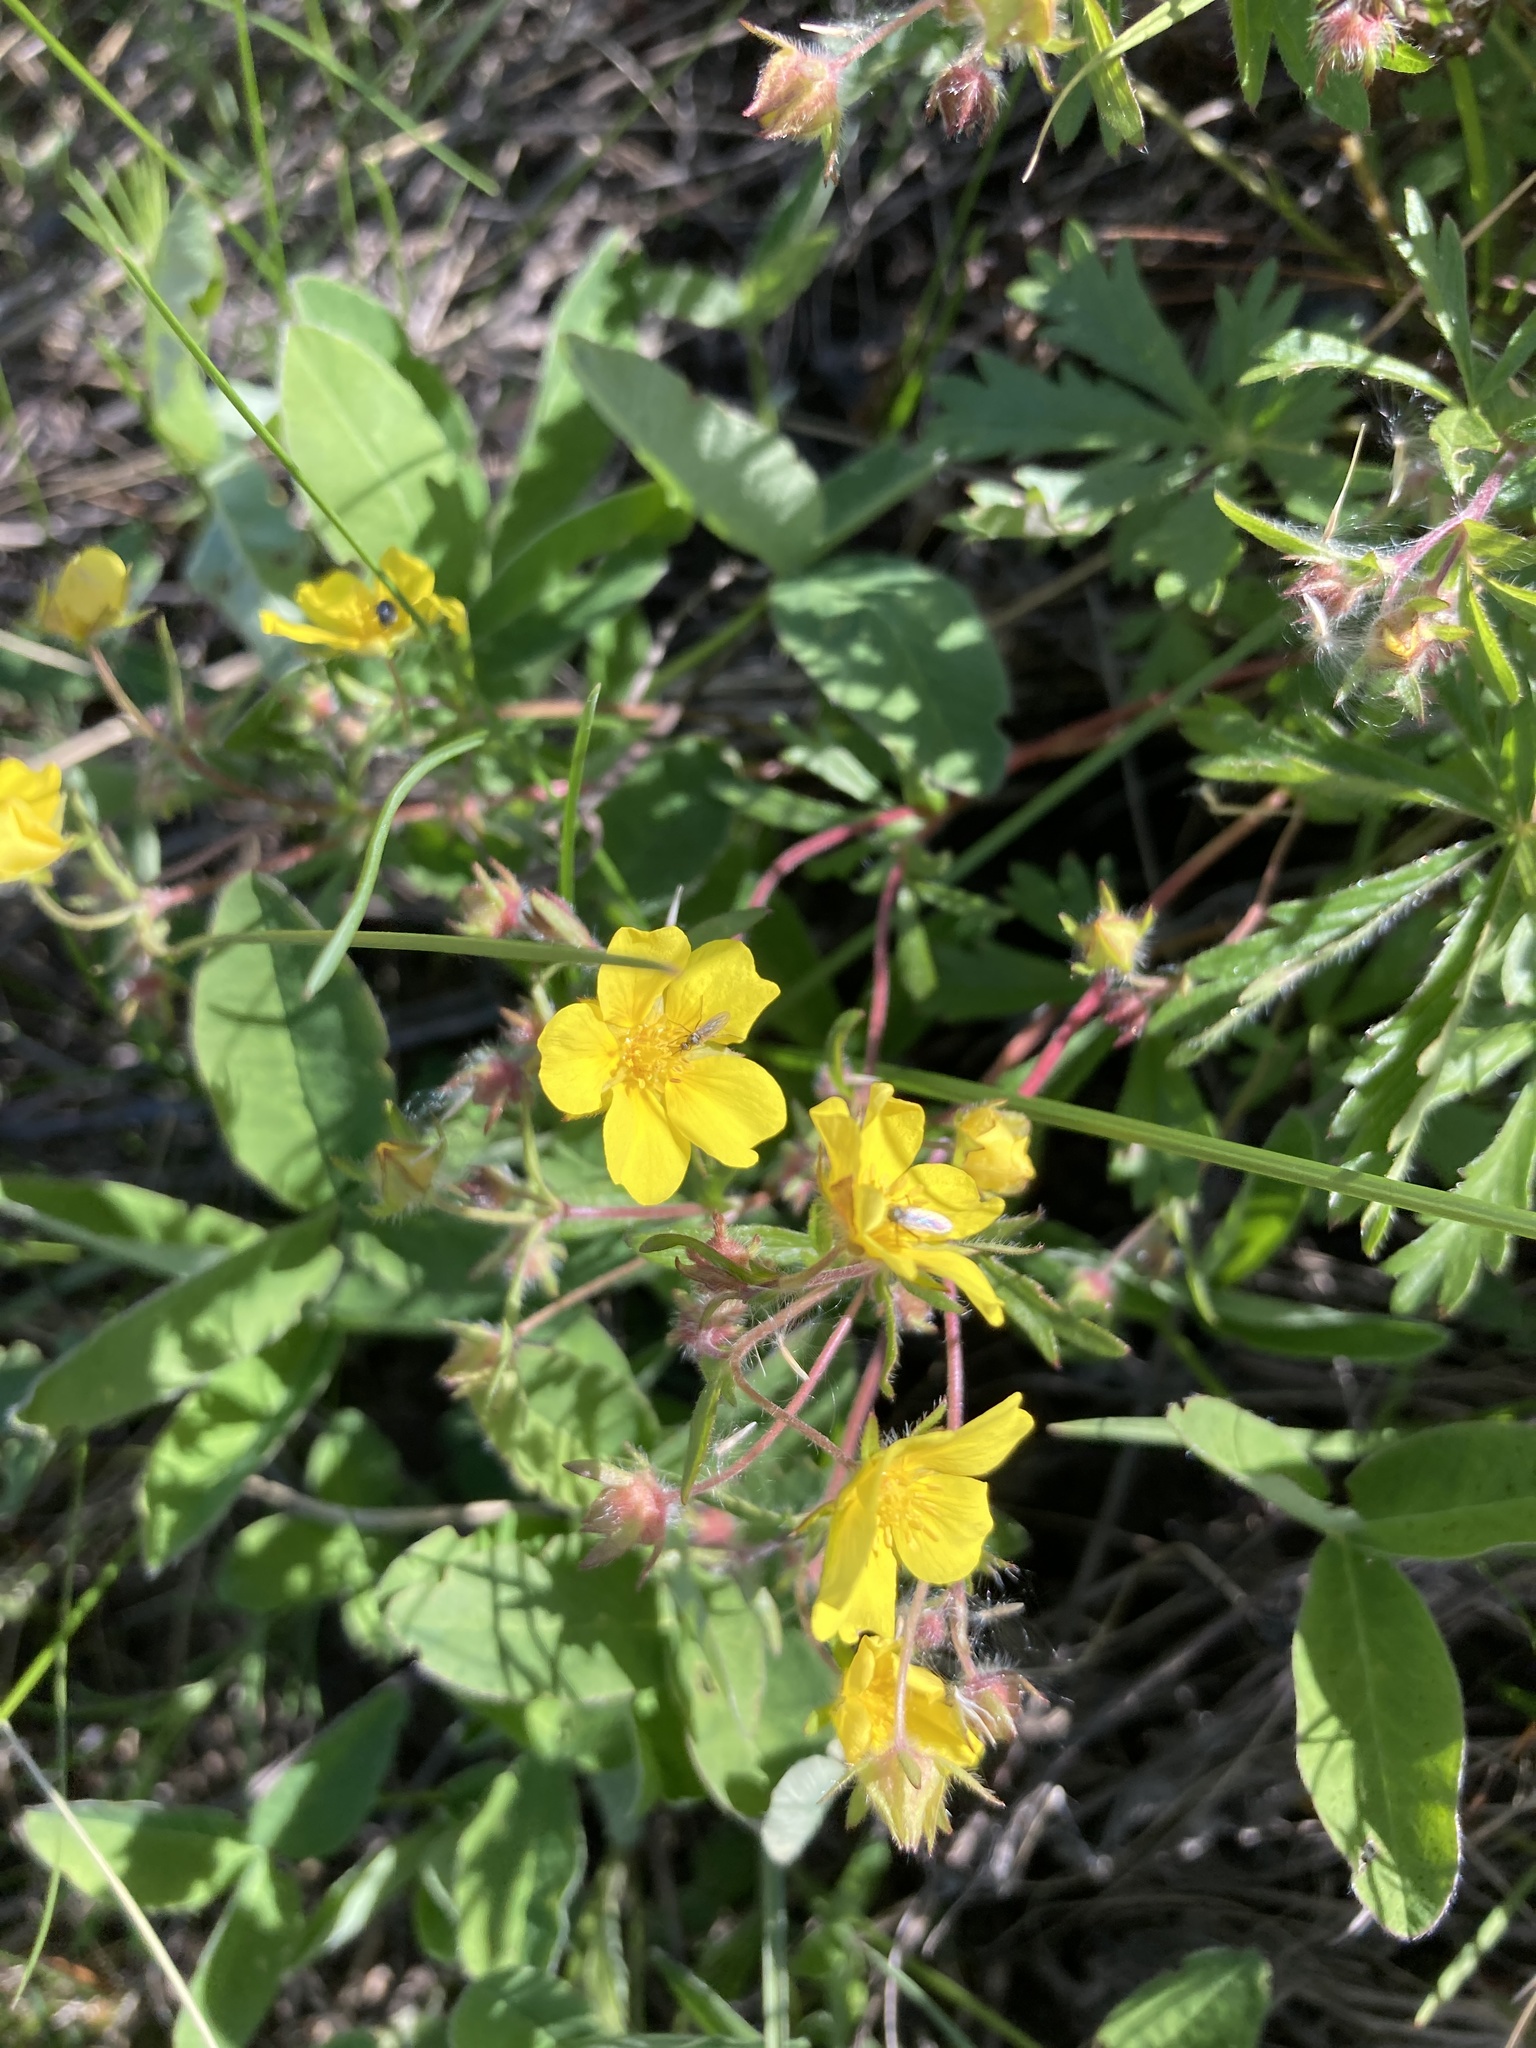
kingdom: Plantae
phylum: Tracheophyta
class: Magnoliopsida
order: Rosales
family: Rosaceae
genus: Potentilla
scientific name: Potentilla humifusa
